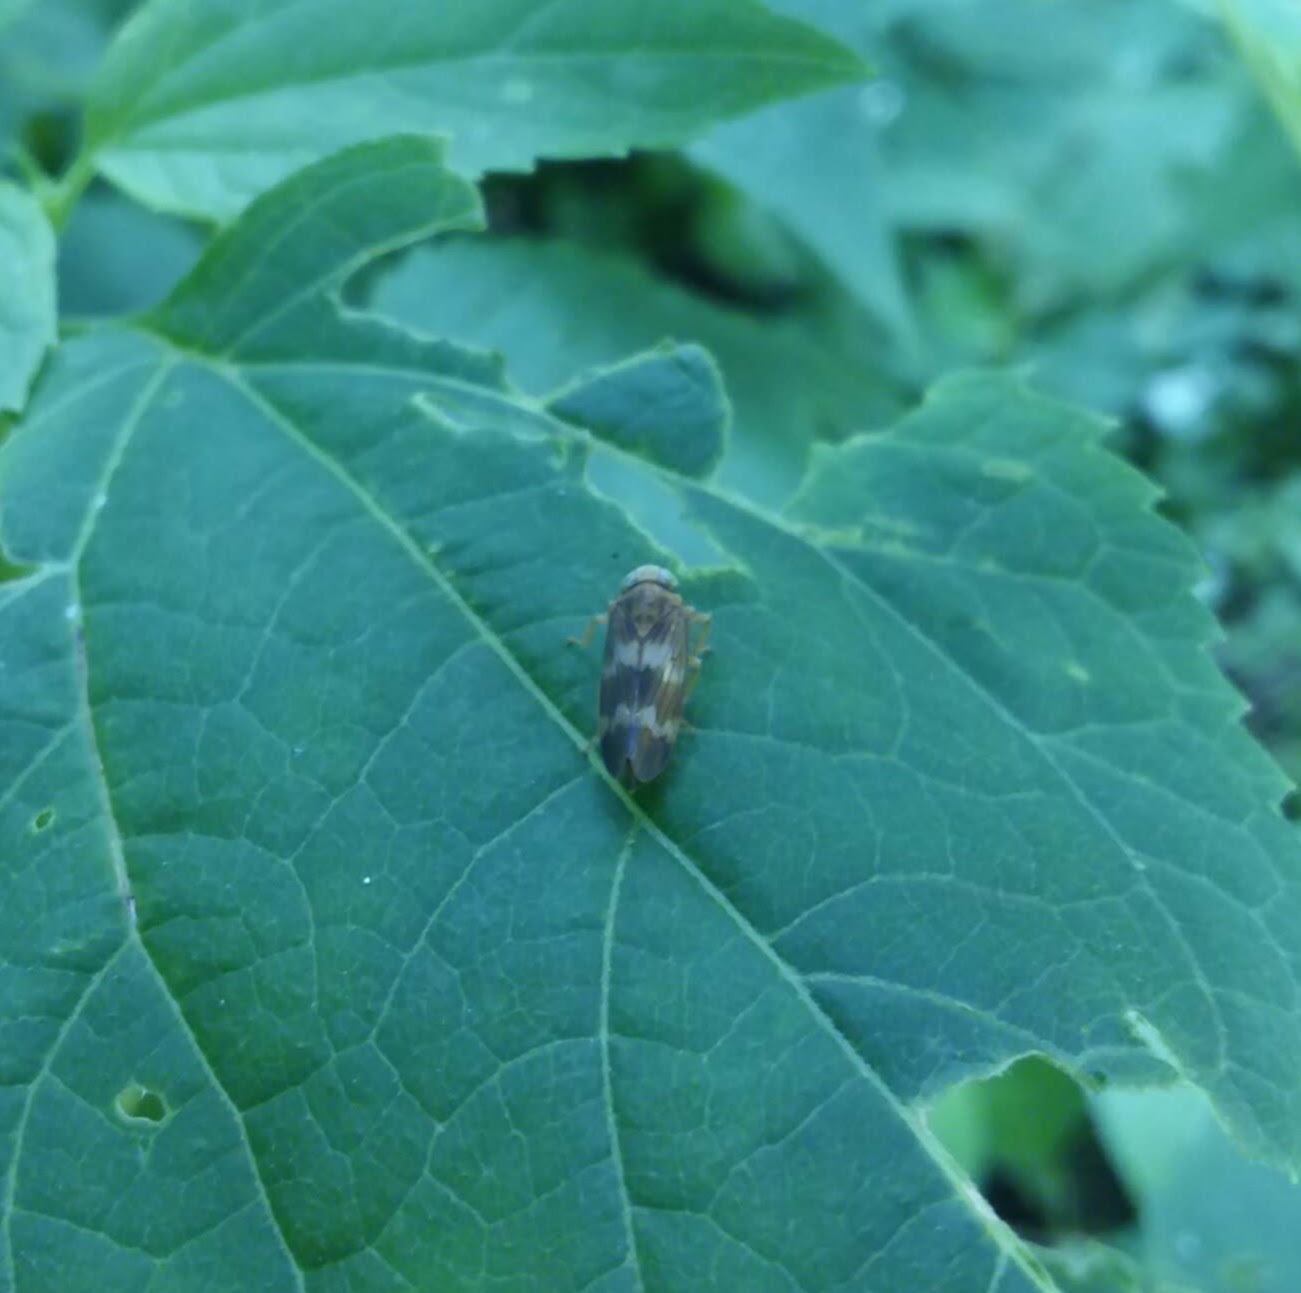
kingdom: Animalia
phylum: Arthropoda
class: Insecta
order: Hemiptera
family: Cicadellidae
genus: Jikradia
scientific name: Jikradia olitoria
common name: Coppery leafhopper
